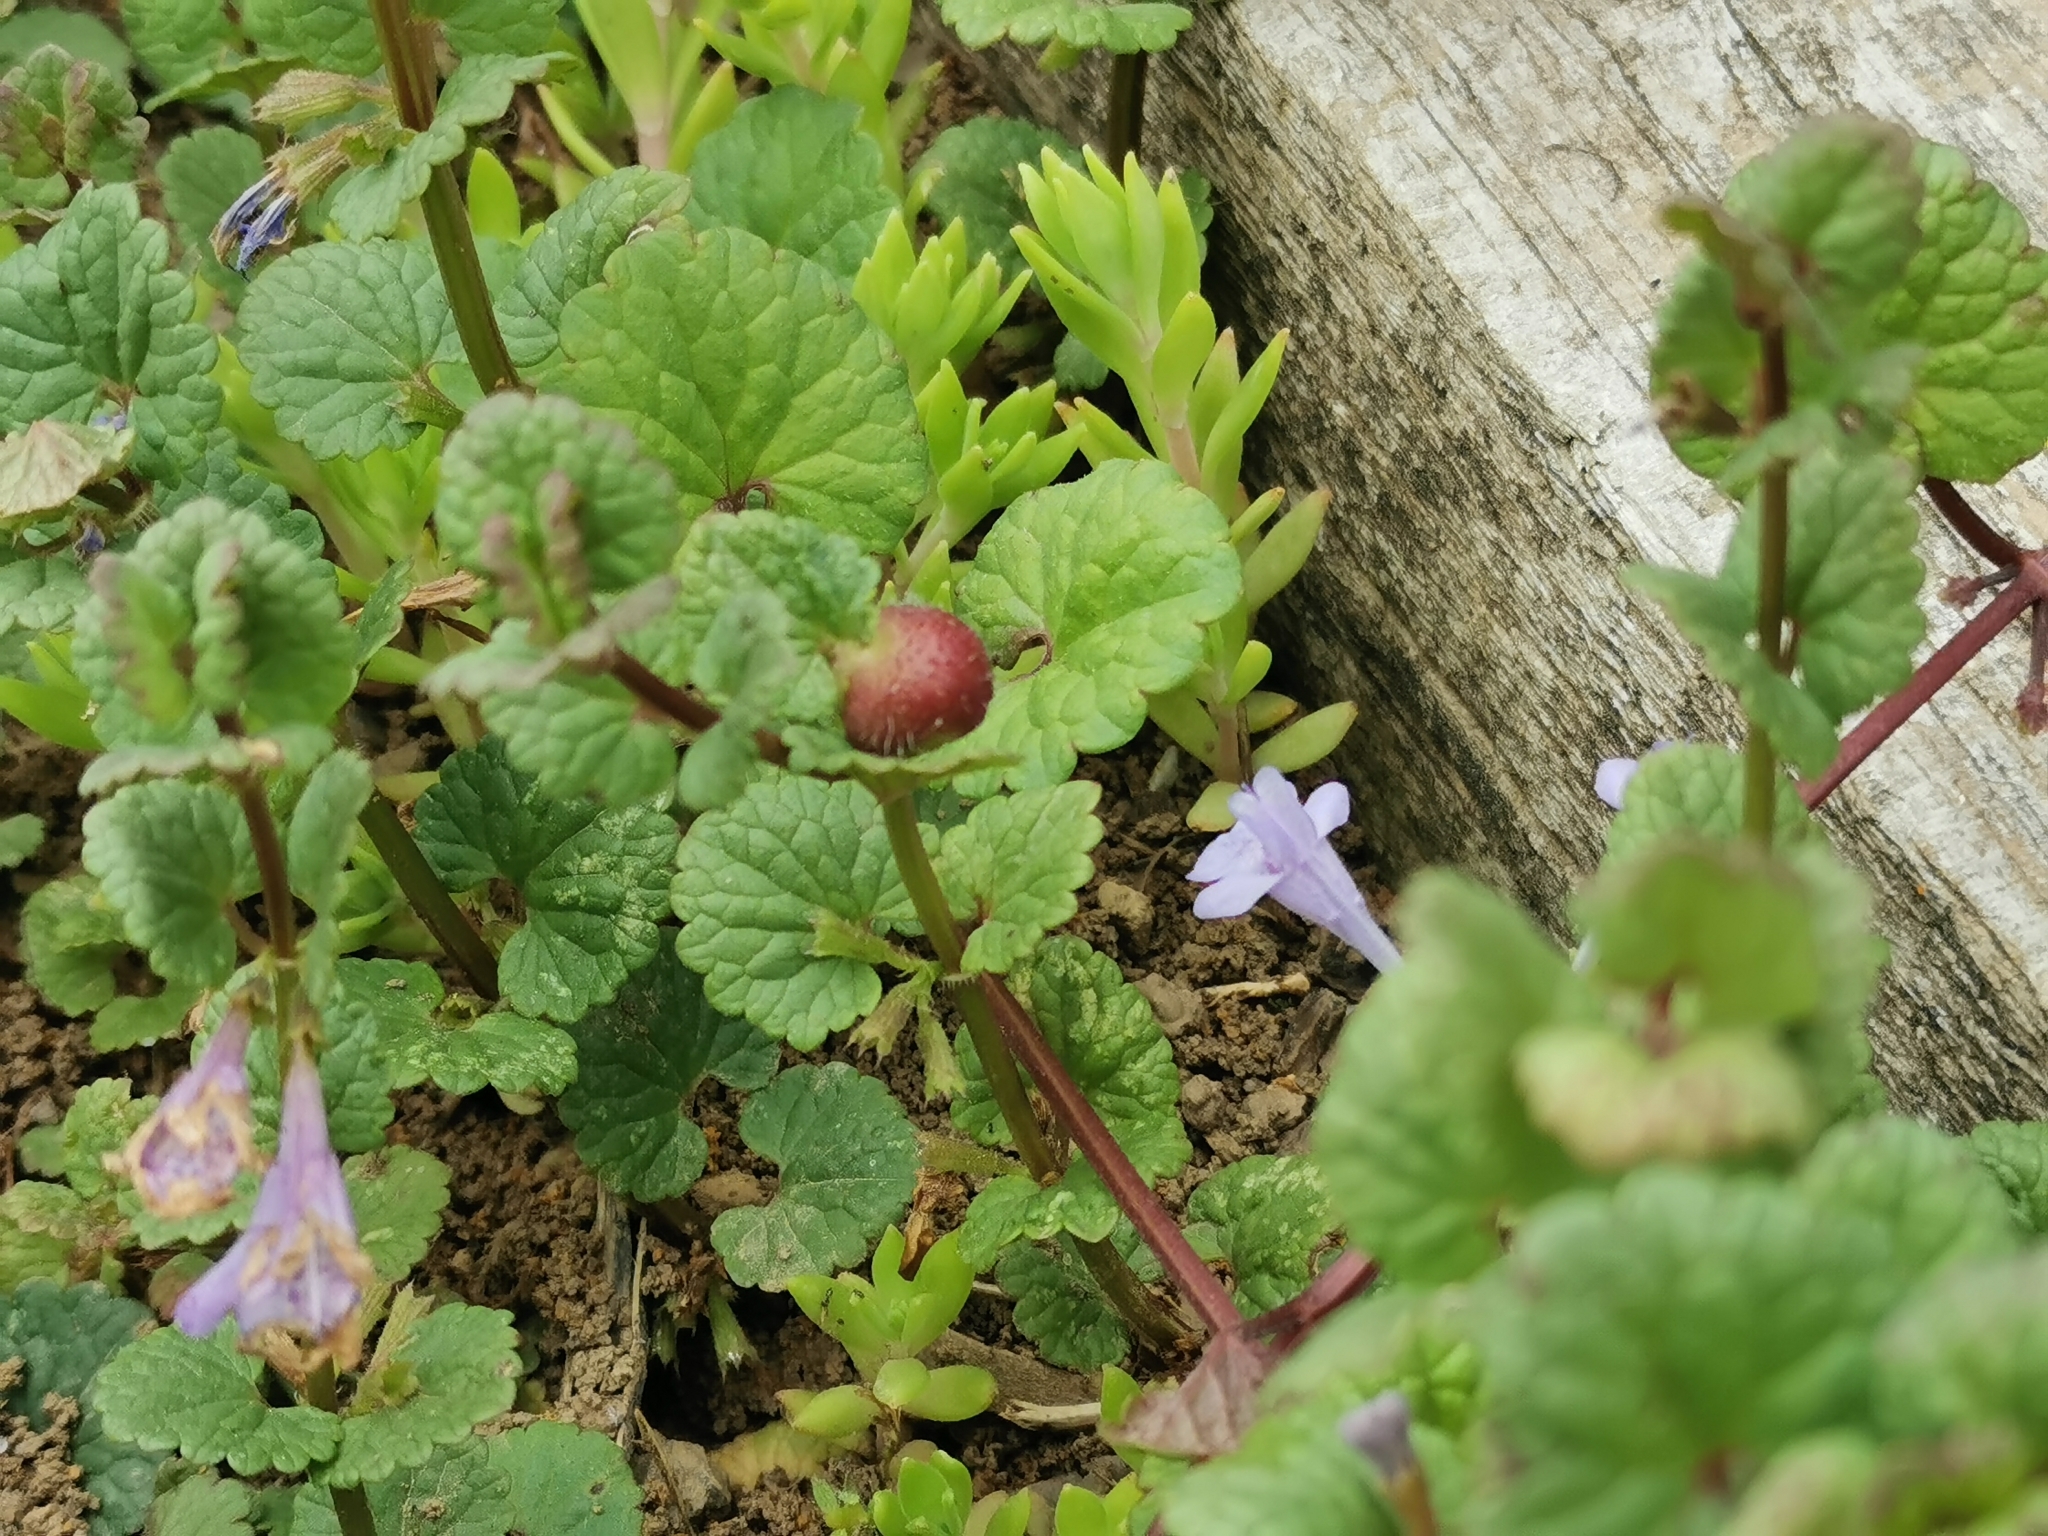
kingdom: Animalia
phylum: Arthropoda
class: Insecta
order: Hymenoptera
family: Cynipidae
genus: Liposthenes
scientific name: Liposthenes glechomae
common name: Gall wasp
